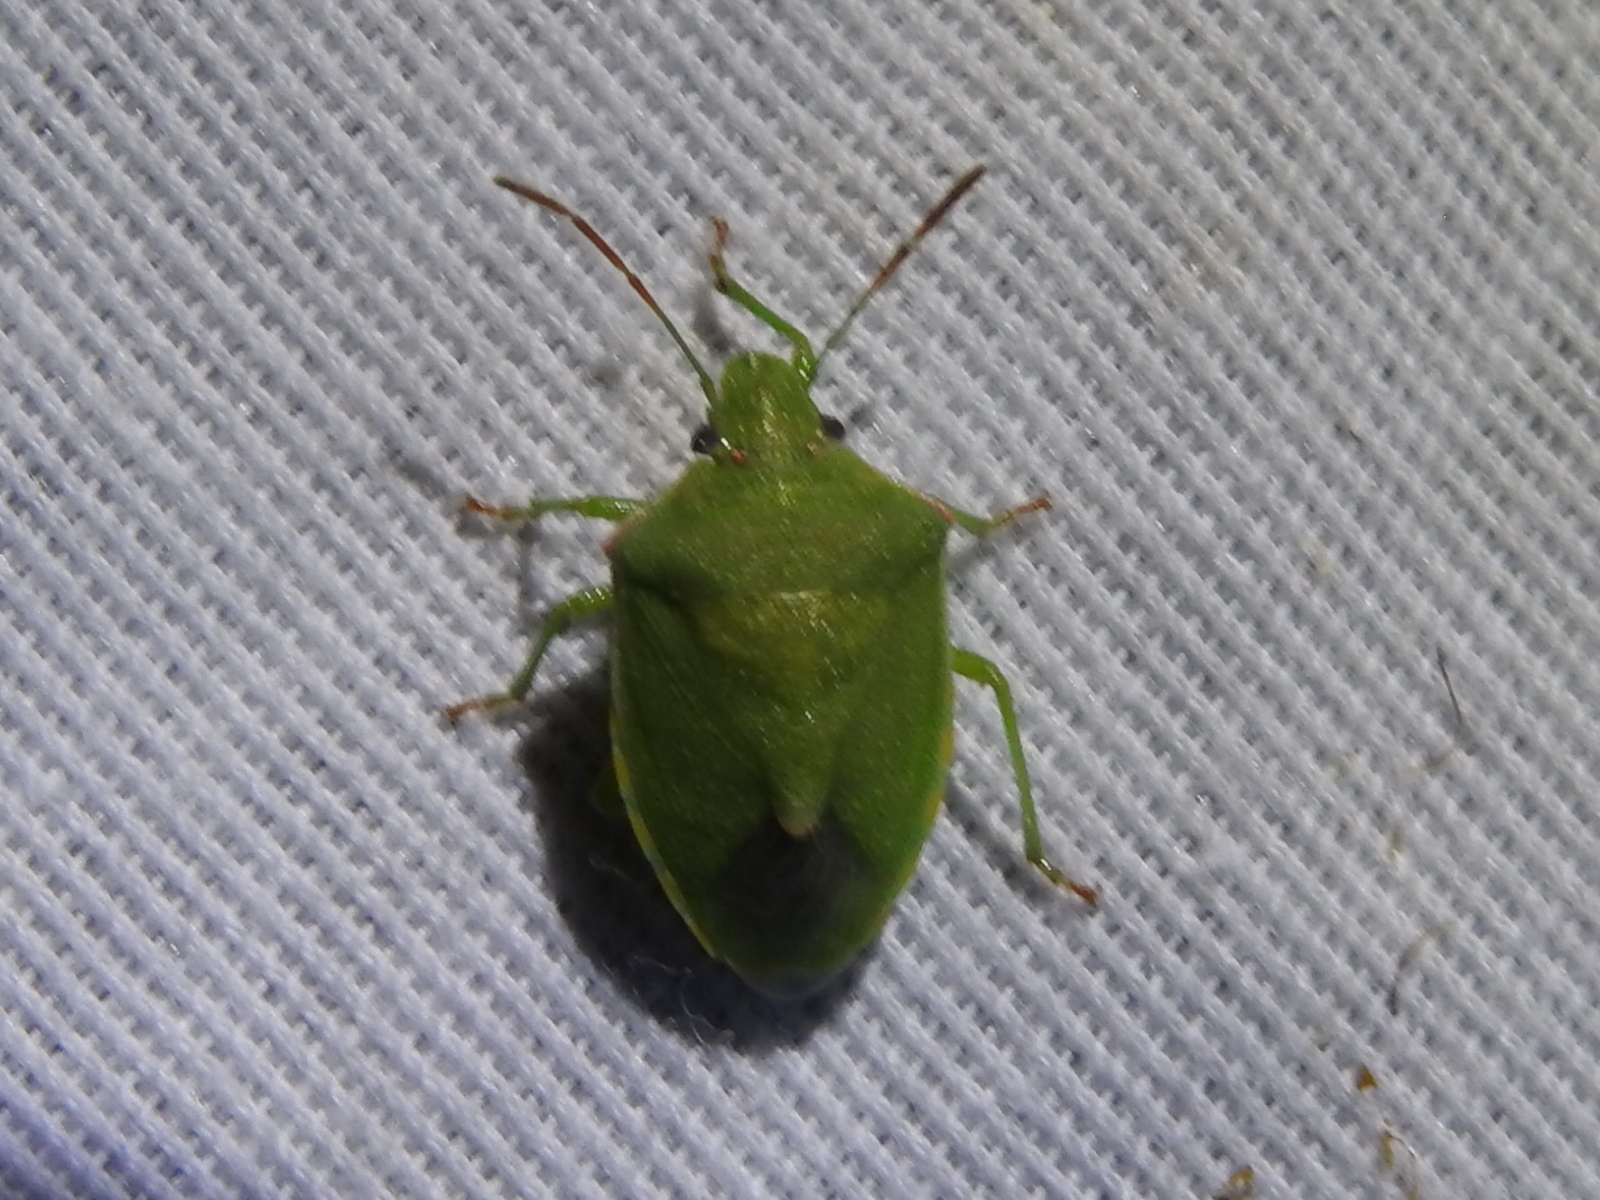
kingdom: Animalia
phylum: Arthropoda
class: Insecta
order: Hemiptera
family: Pentatomidae
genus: Thyanta
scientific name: Thyanta accerra
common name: Stink bug
